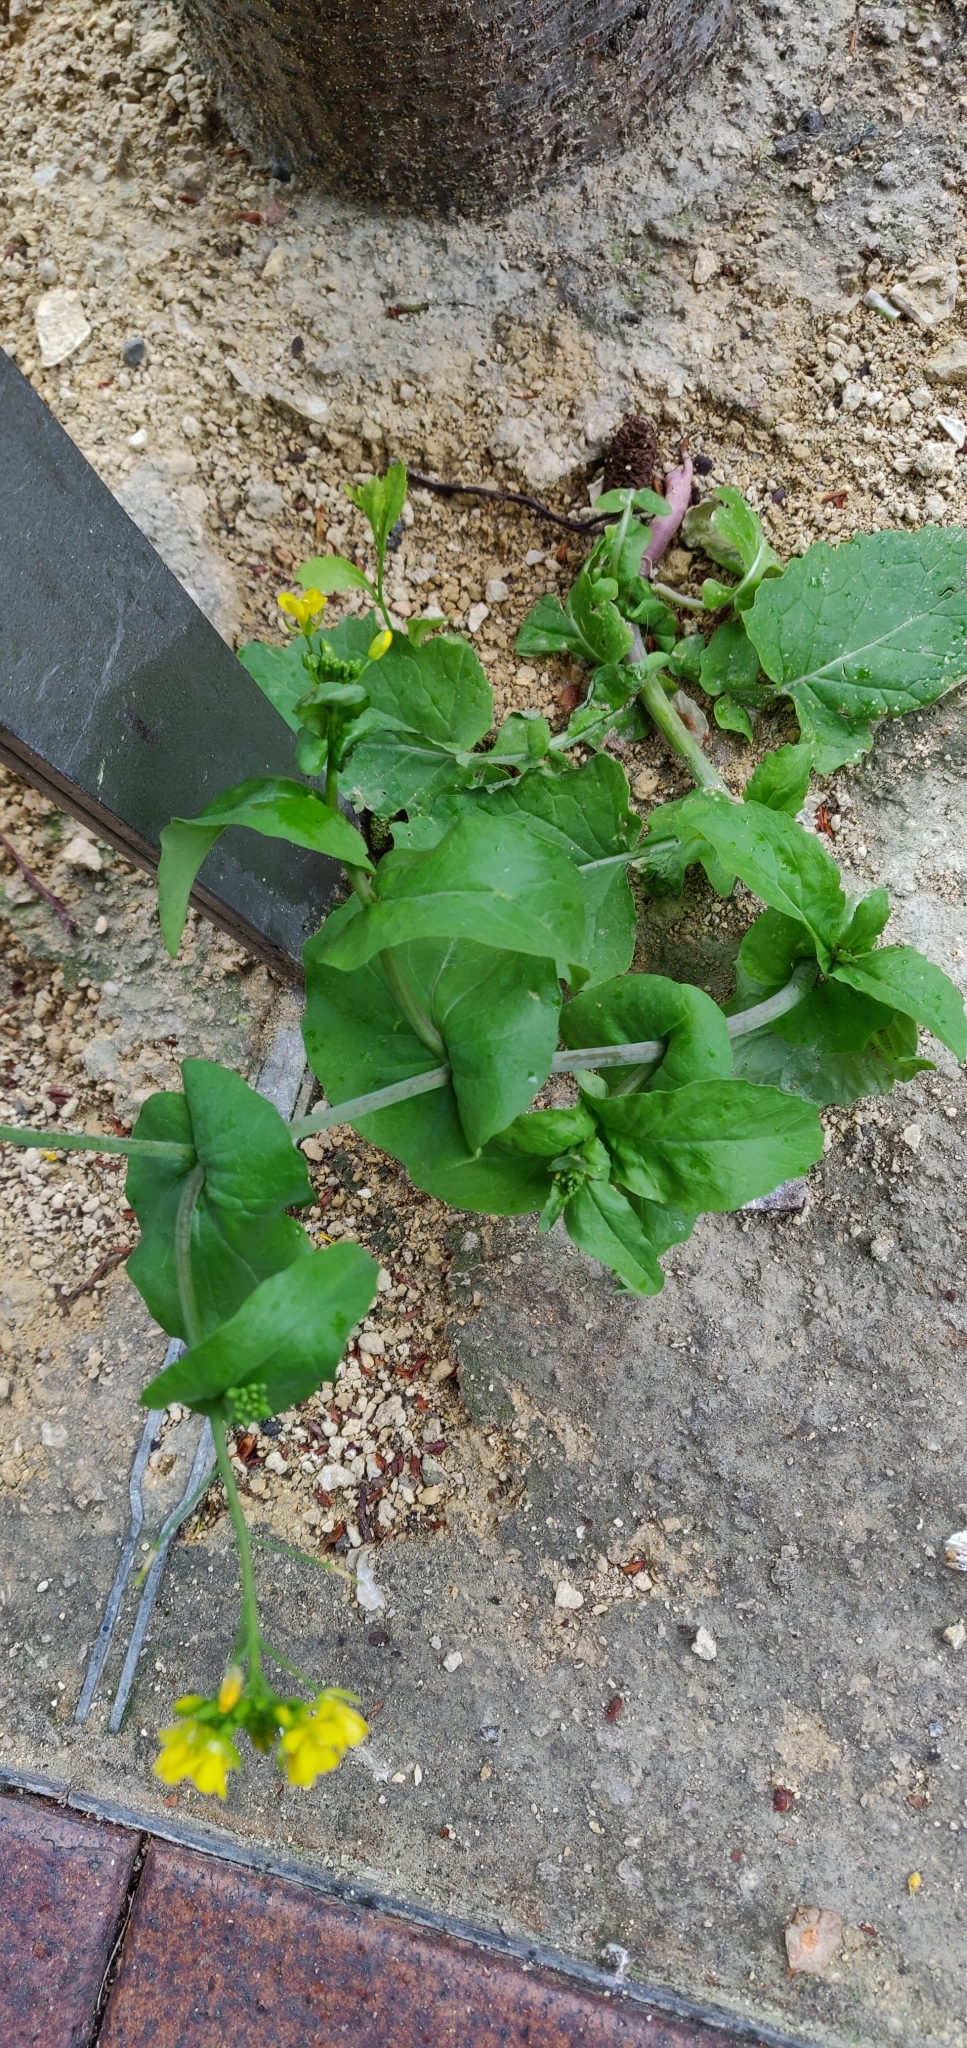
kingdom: Plantae
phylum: Tracheophyta
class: Magnoliopsida
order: Brassicales
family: Brassicaceae
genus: Brassica
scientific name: Brassica rapa
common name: Field mustard
